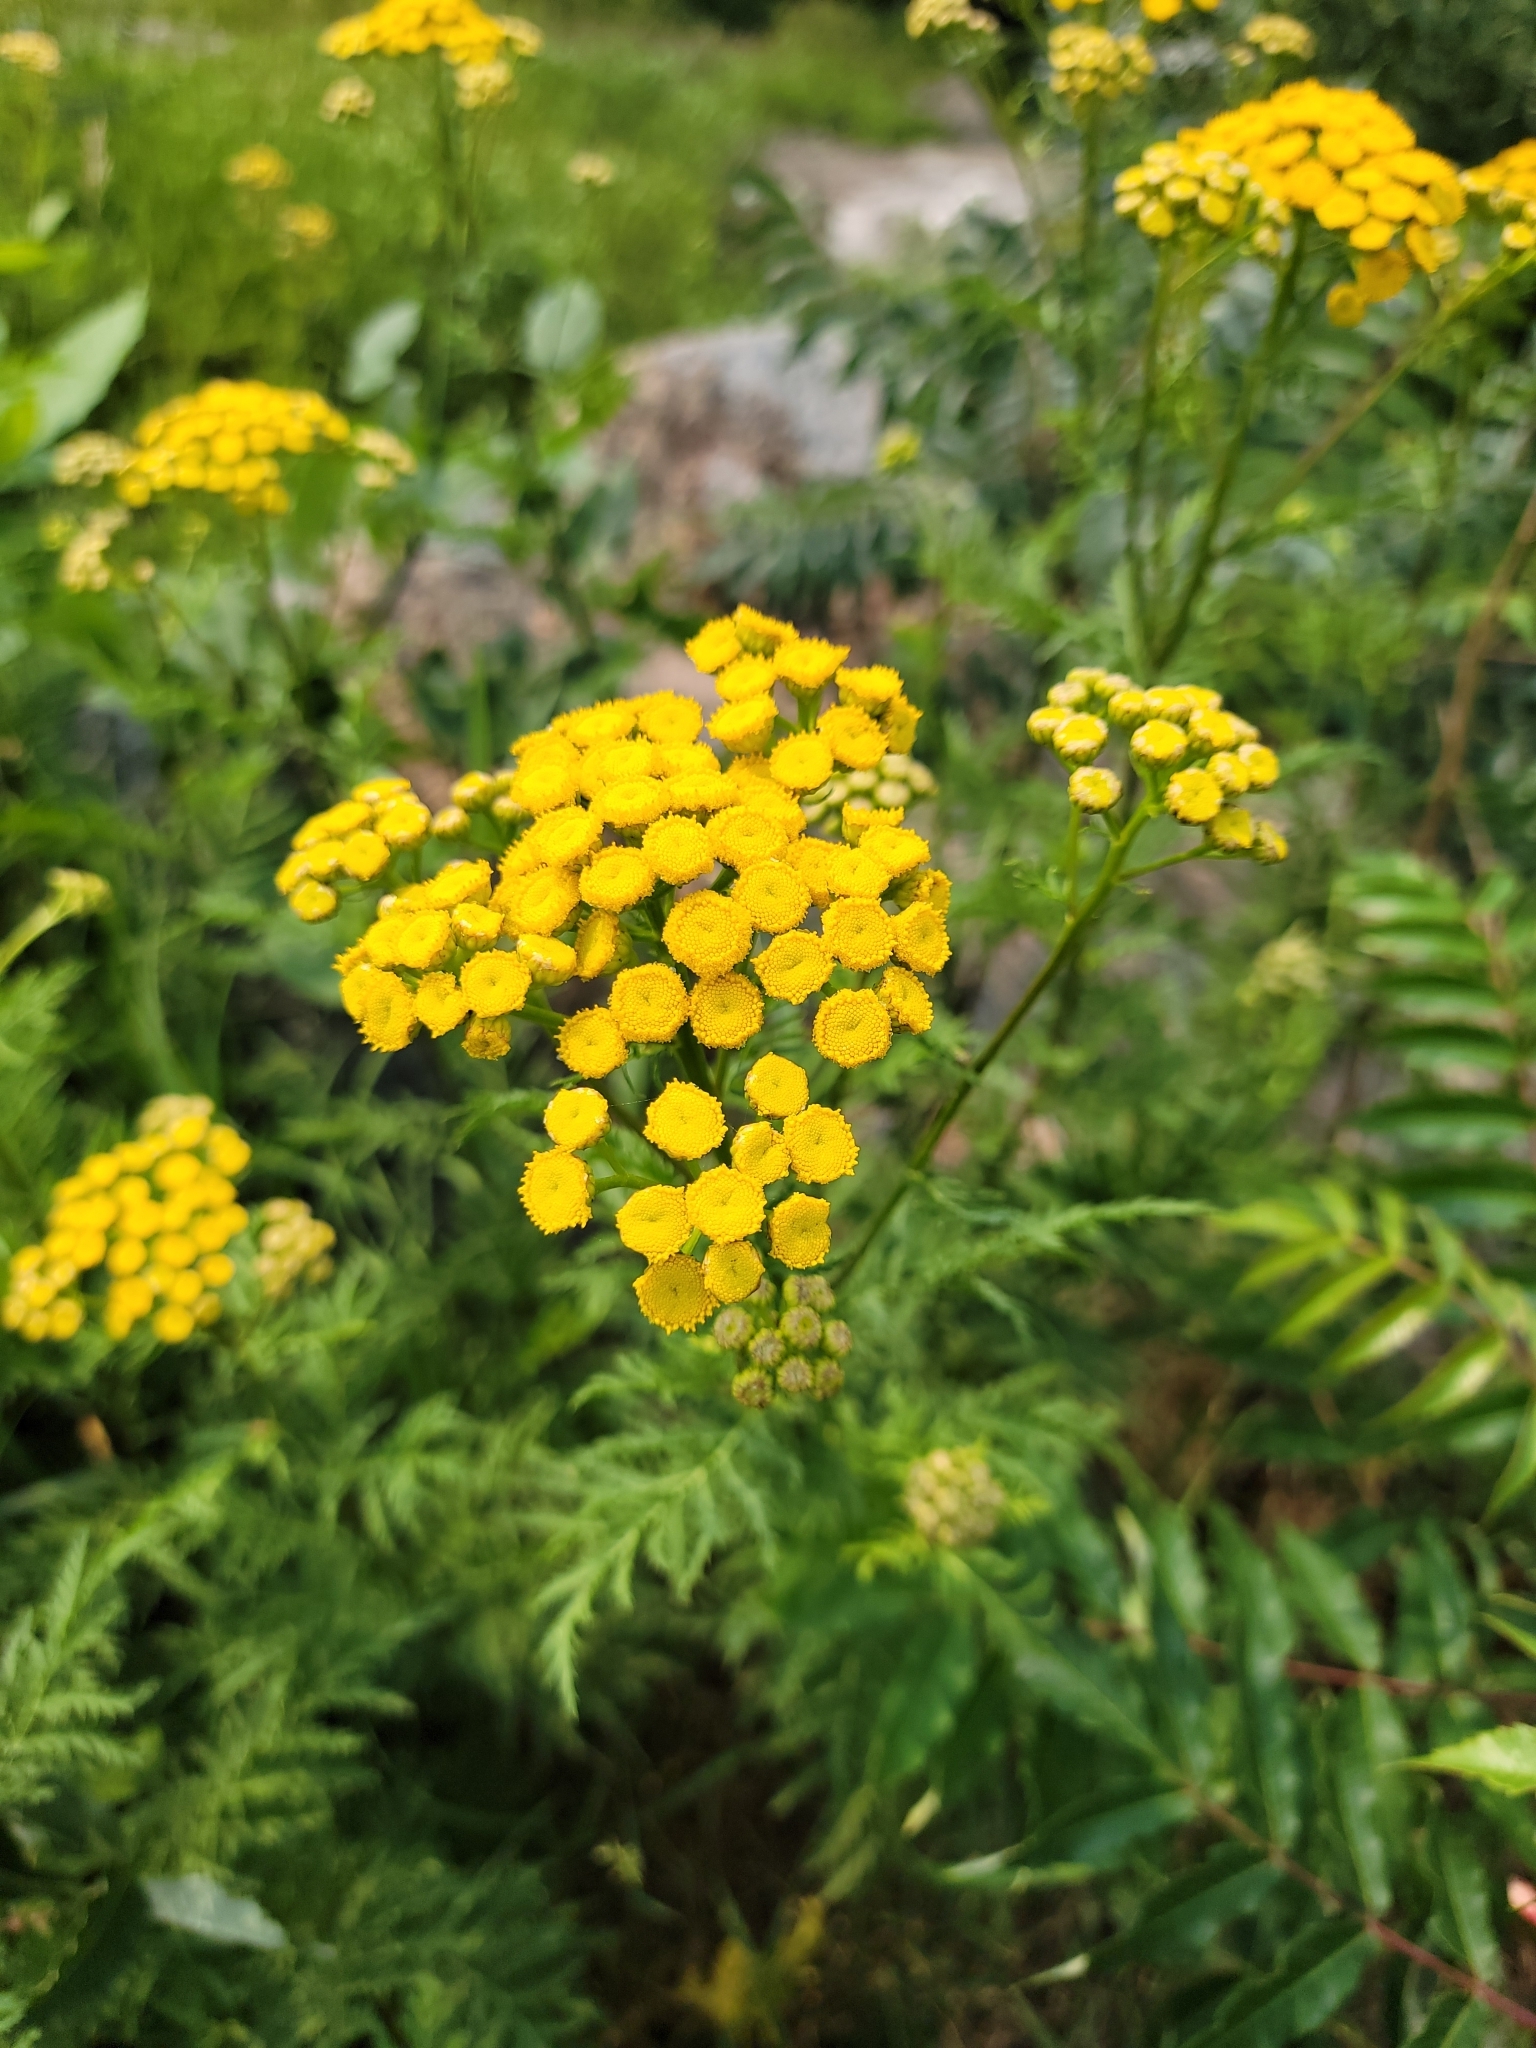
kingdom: Plantae
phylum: Tracheophyta
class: Magnoliopsida
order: Asterales
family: Asteraceae
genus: Tanacetum
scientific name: Tanacetum vulgare
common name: Common tansy
